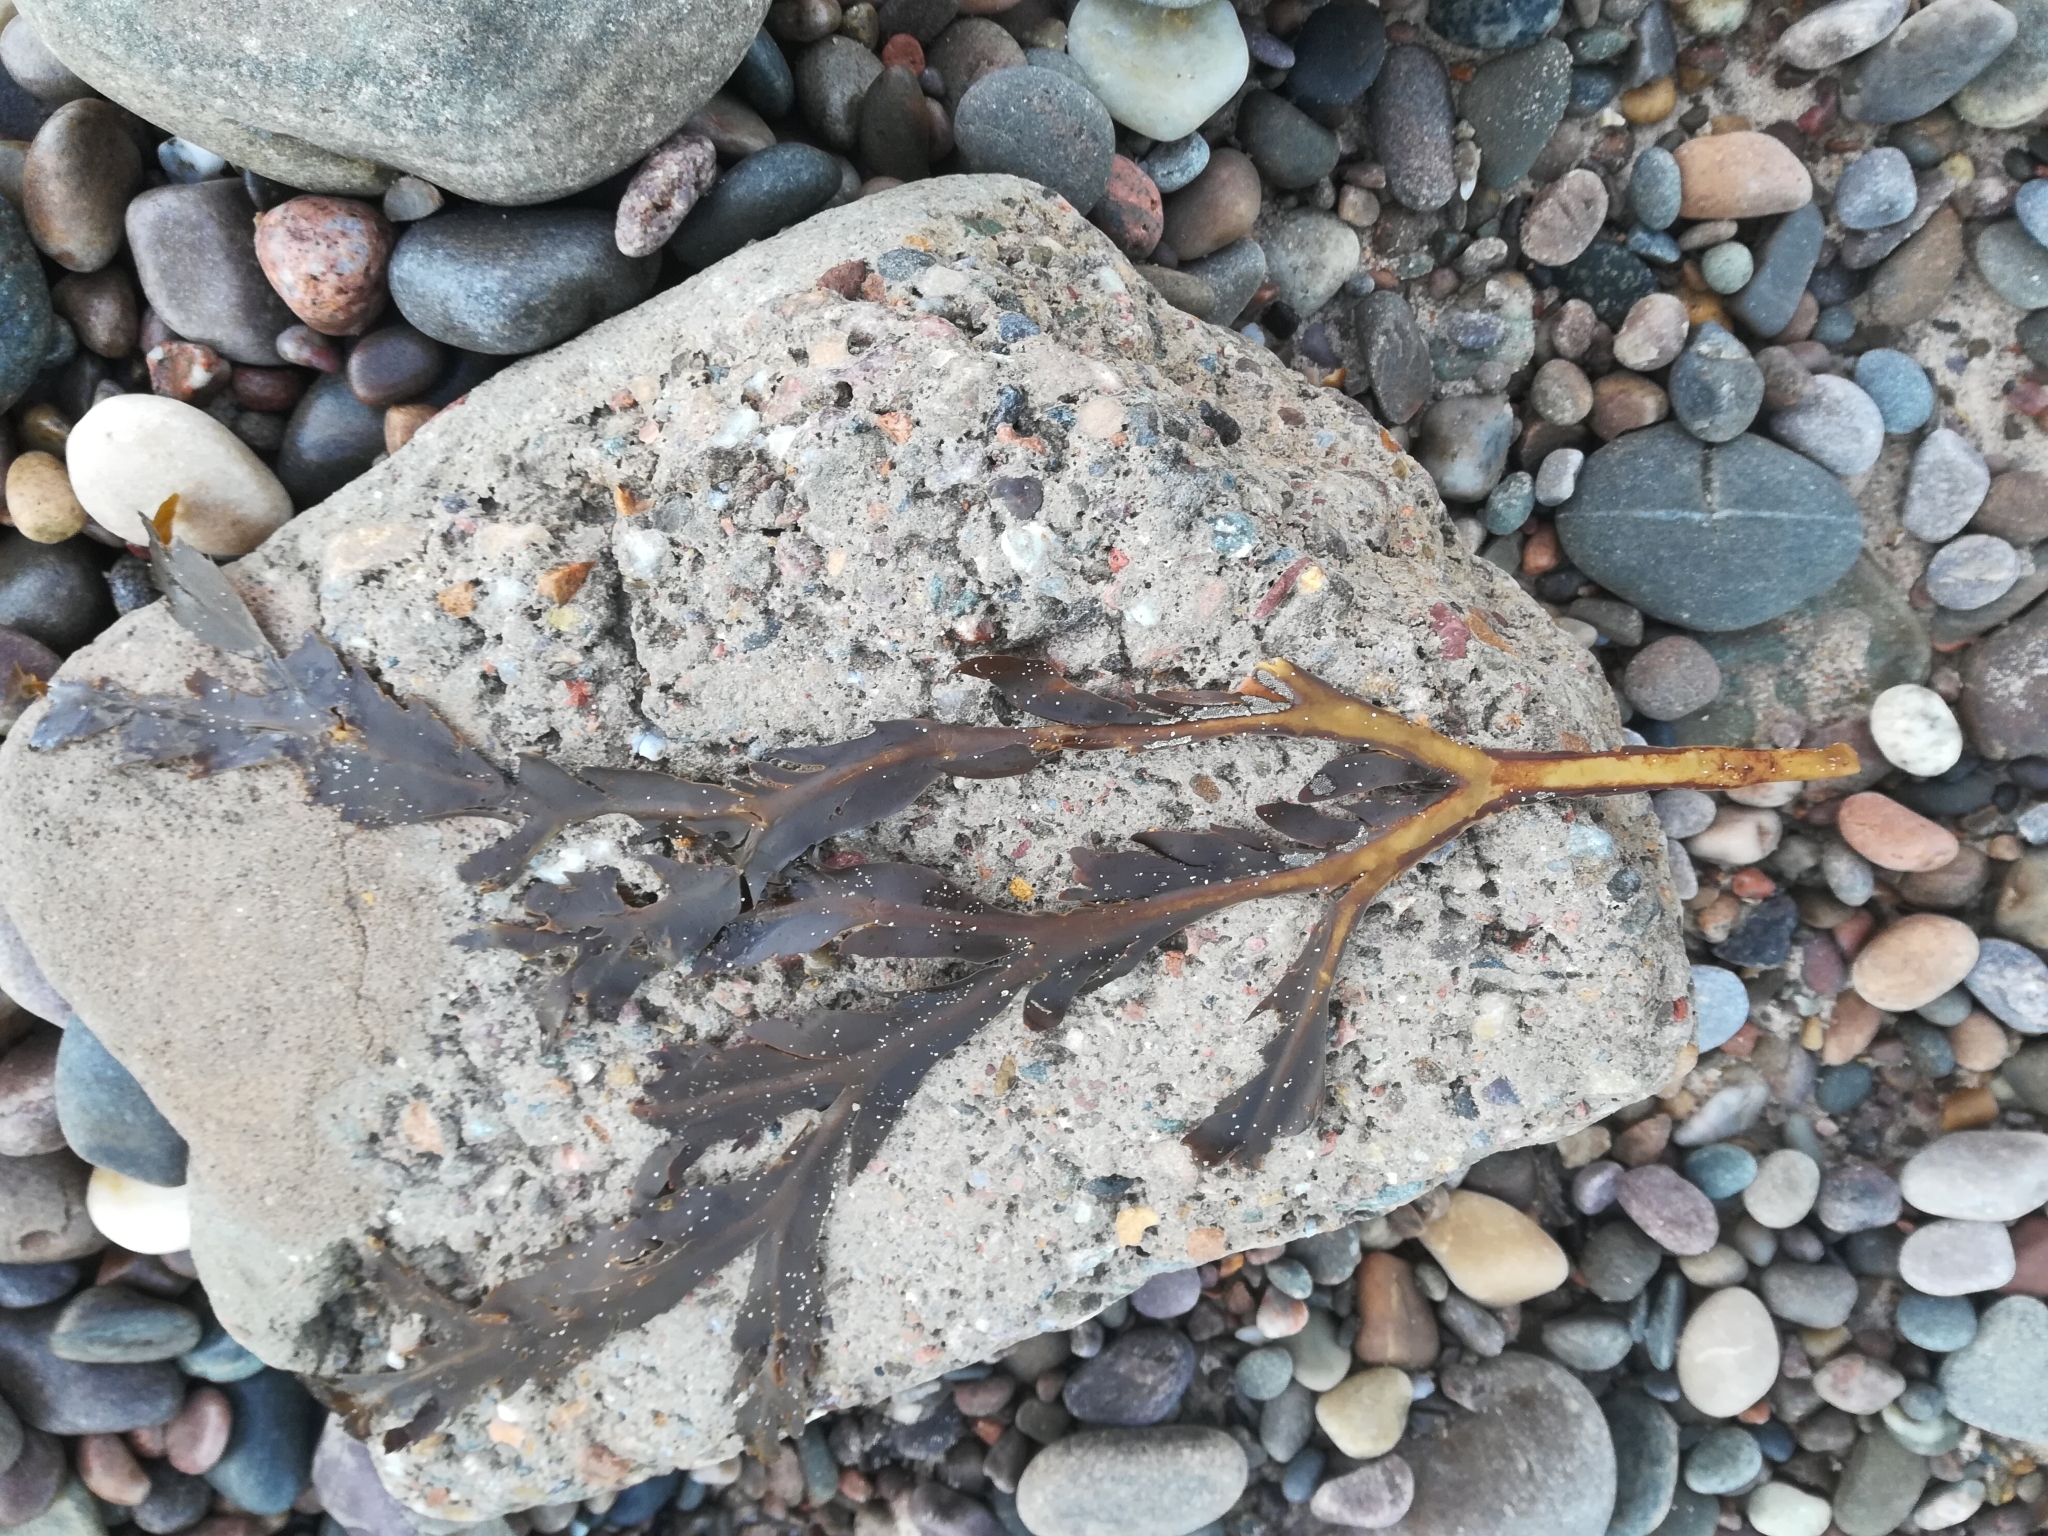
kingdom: Chromista
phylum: Ochrophyta
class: Phaeophyceae
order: Fucales
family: Fucaceae
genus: Fucus
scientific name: Fucus serratus
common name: Toothed wrack
